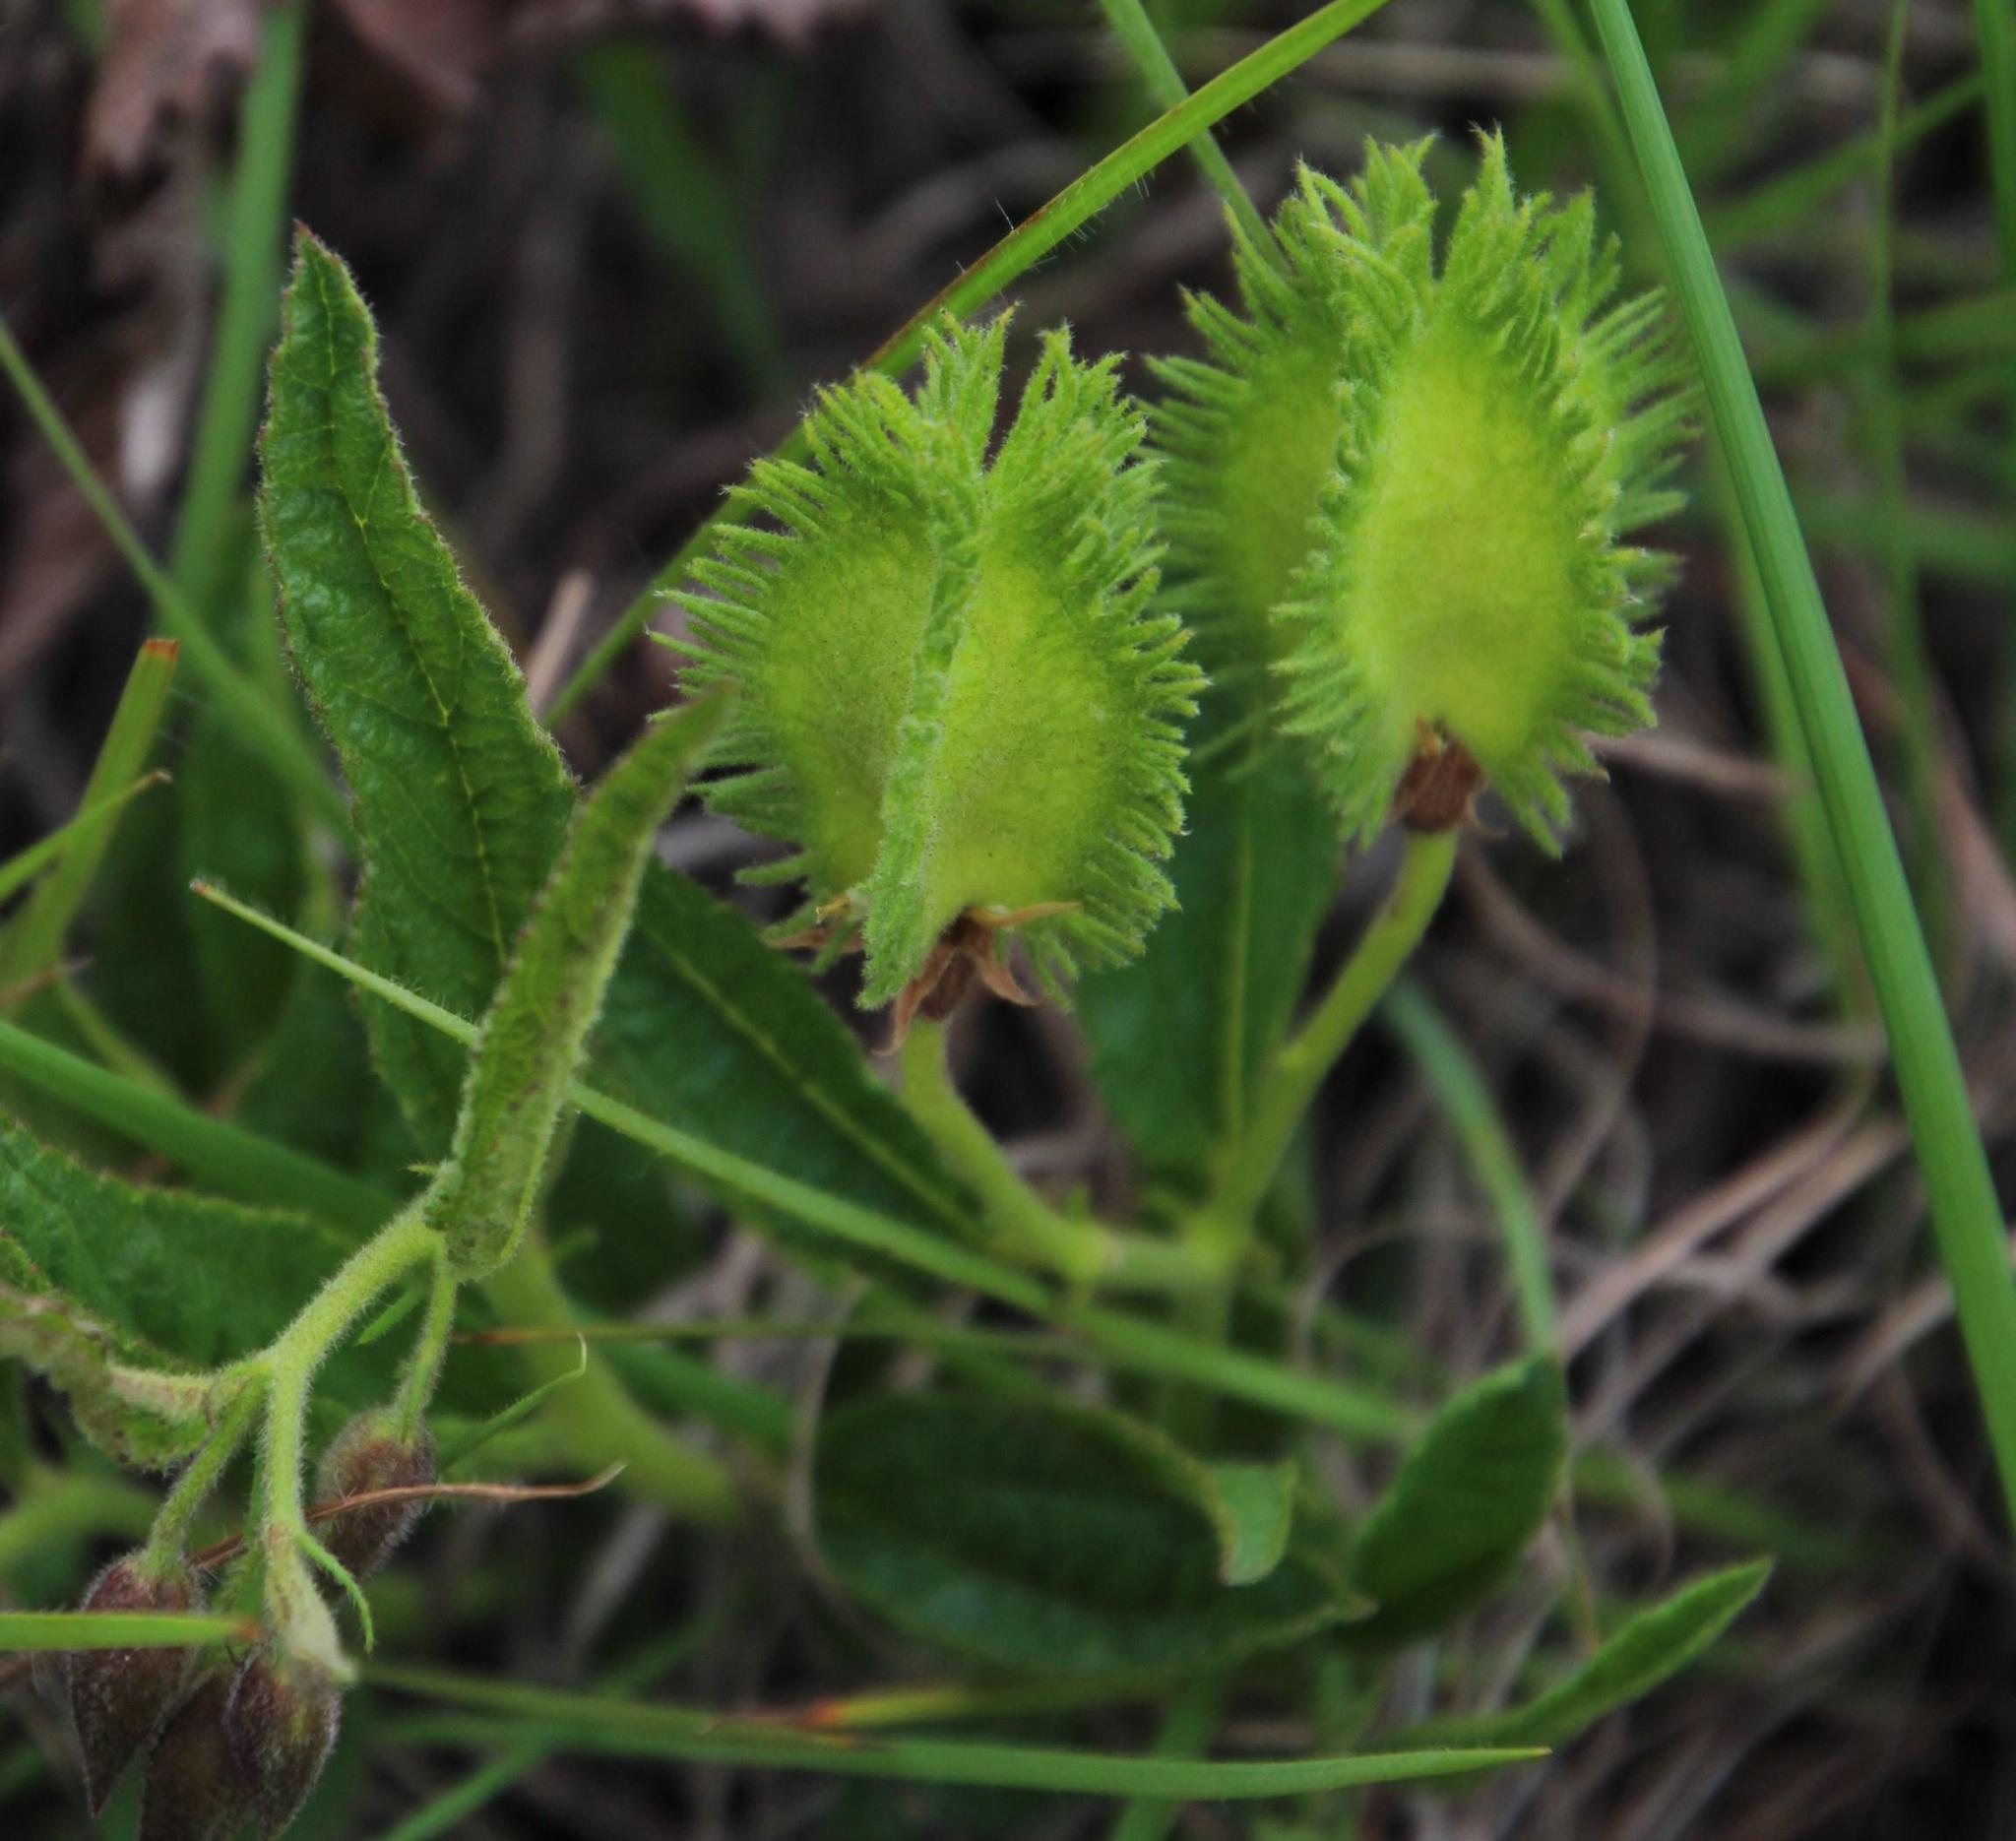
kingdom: Plantae
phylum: Tracheophyta
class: Magnoliopsida
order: Malvales
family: Malvaceae
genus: Hermannia
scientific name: Hermannia cristata
